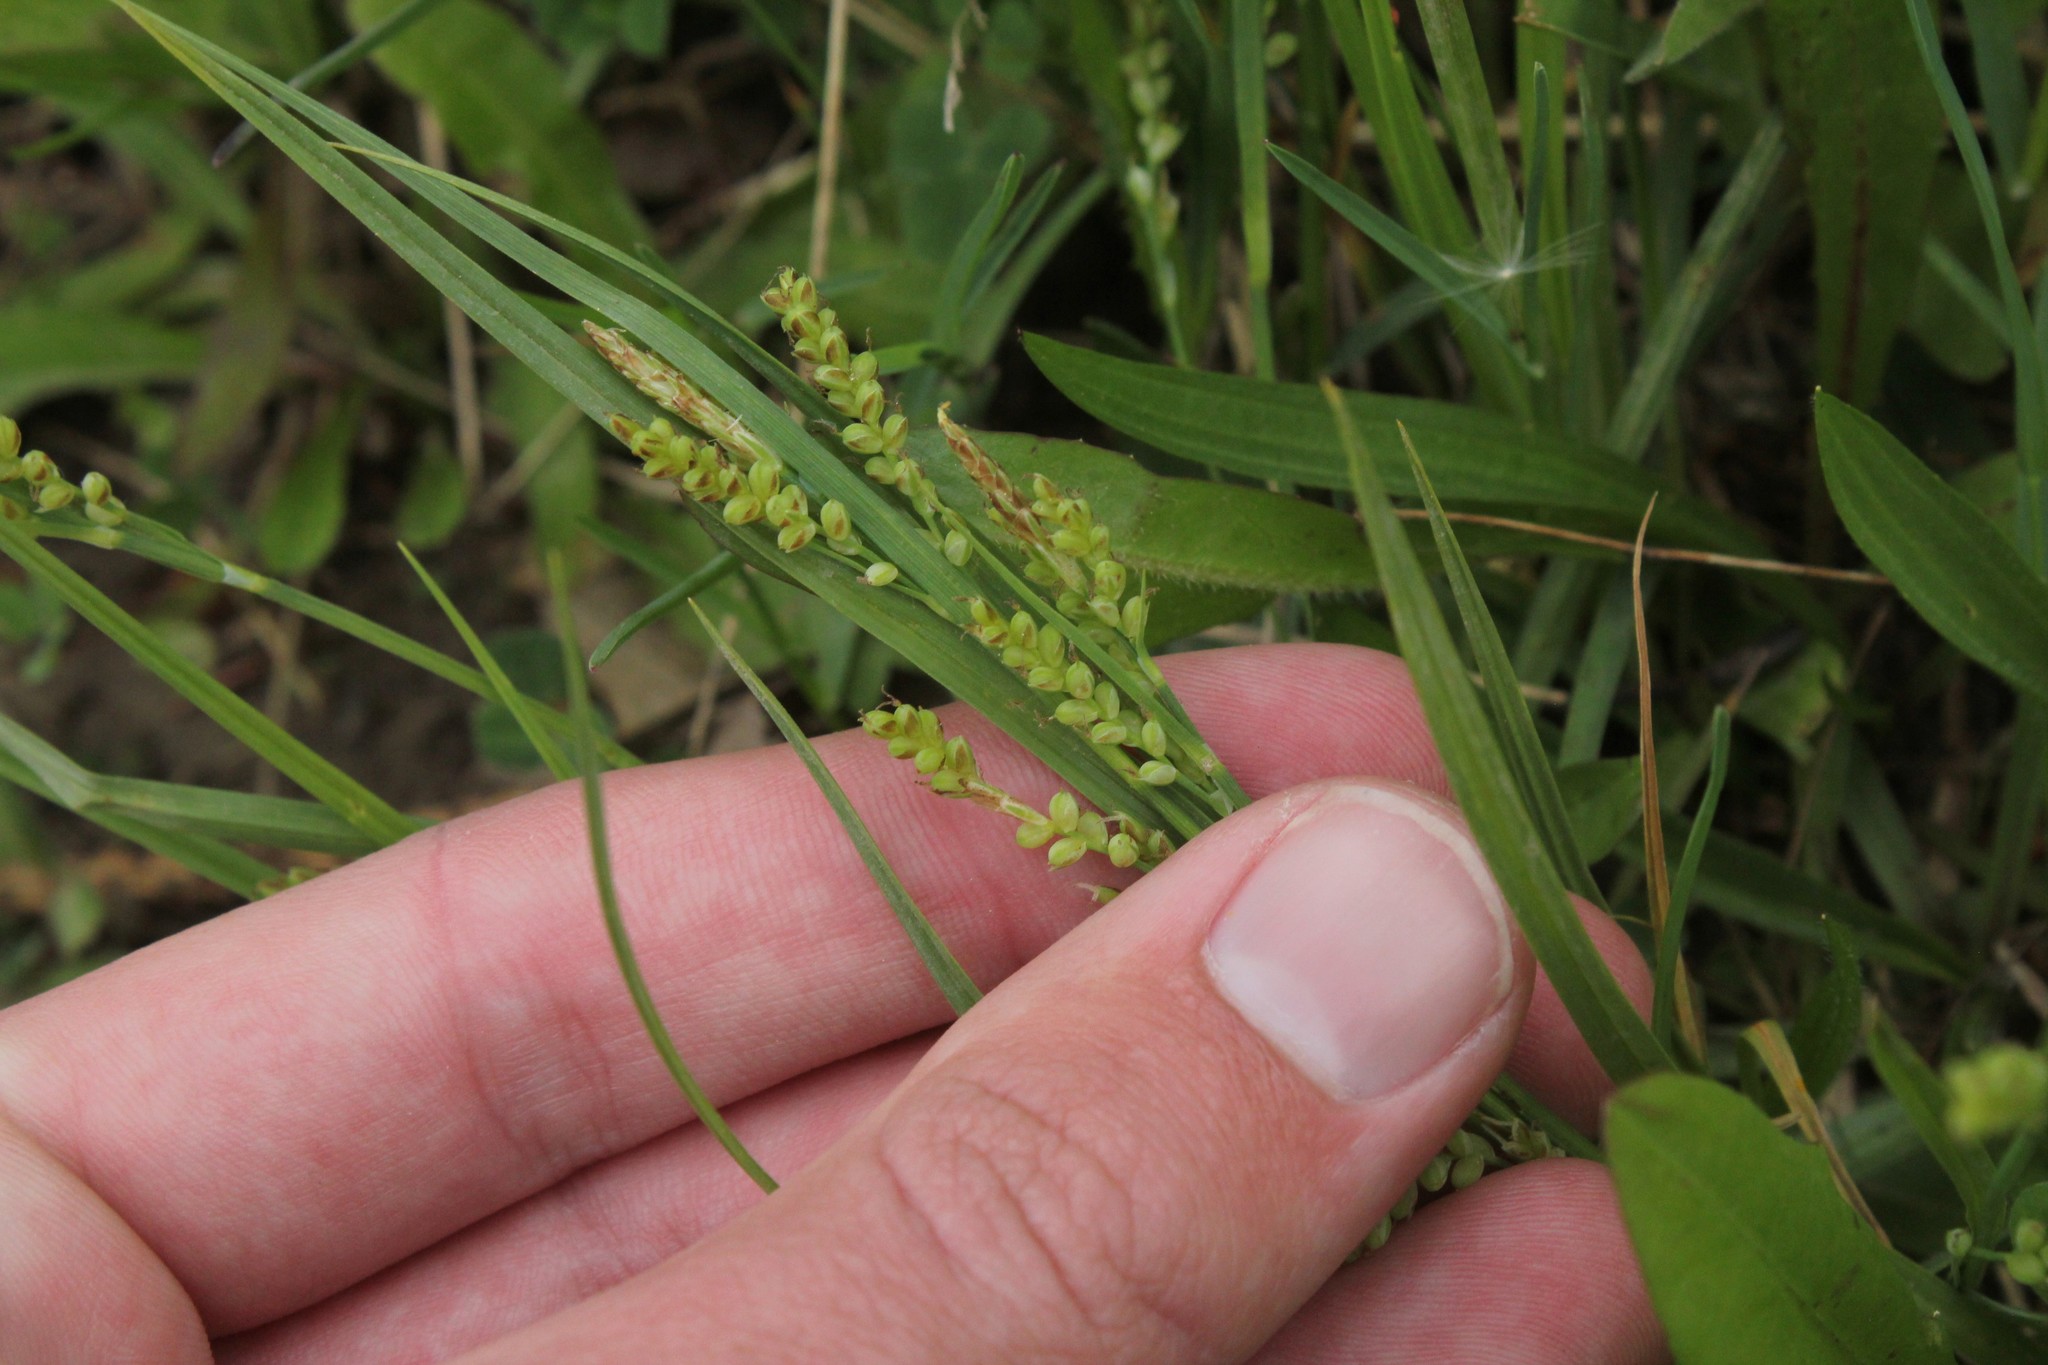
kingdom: Plantae
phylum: Tracheophyta
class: Liliopsida
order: Poales
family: Cyperaceae
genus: Carex
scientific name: Carex aurea
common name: Golden sedge
